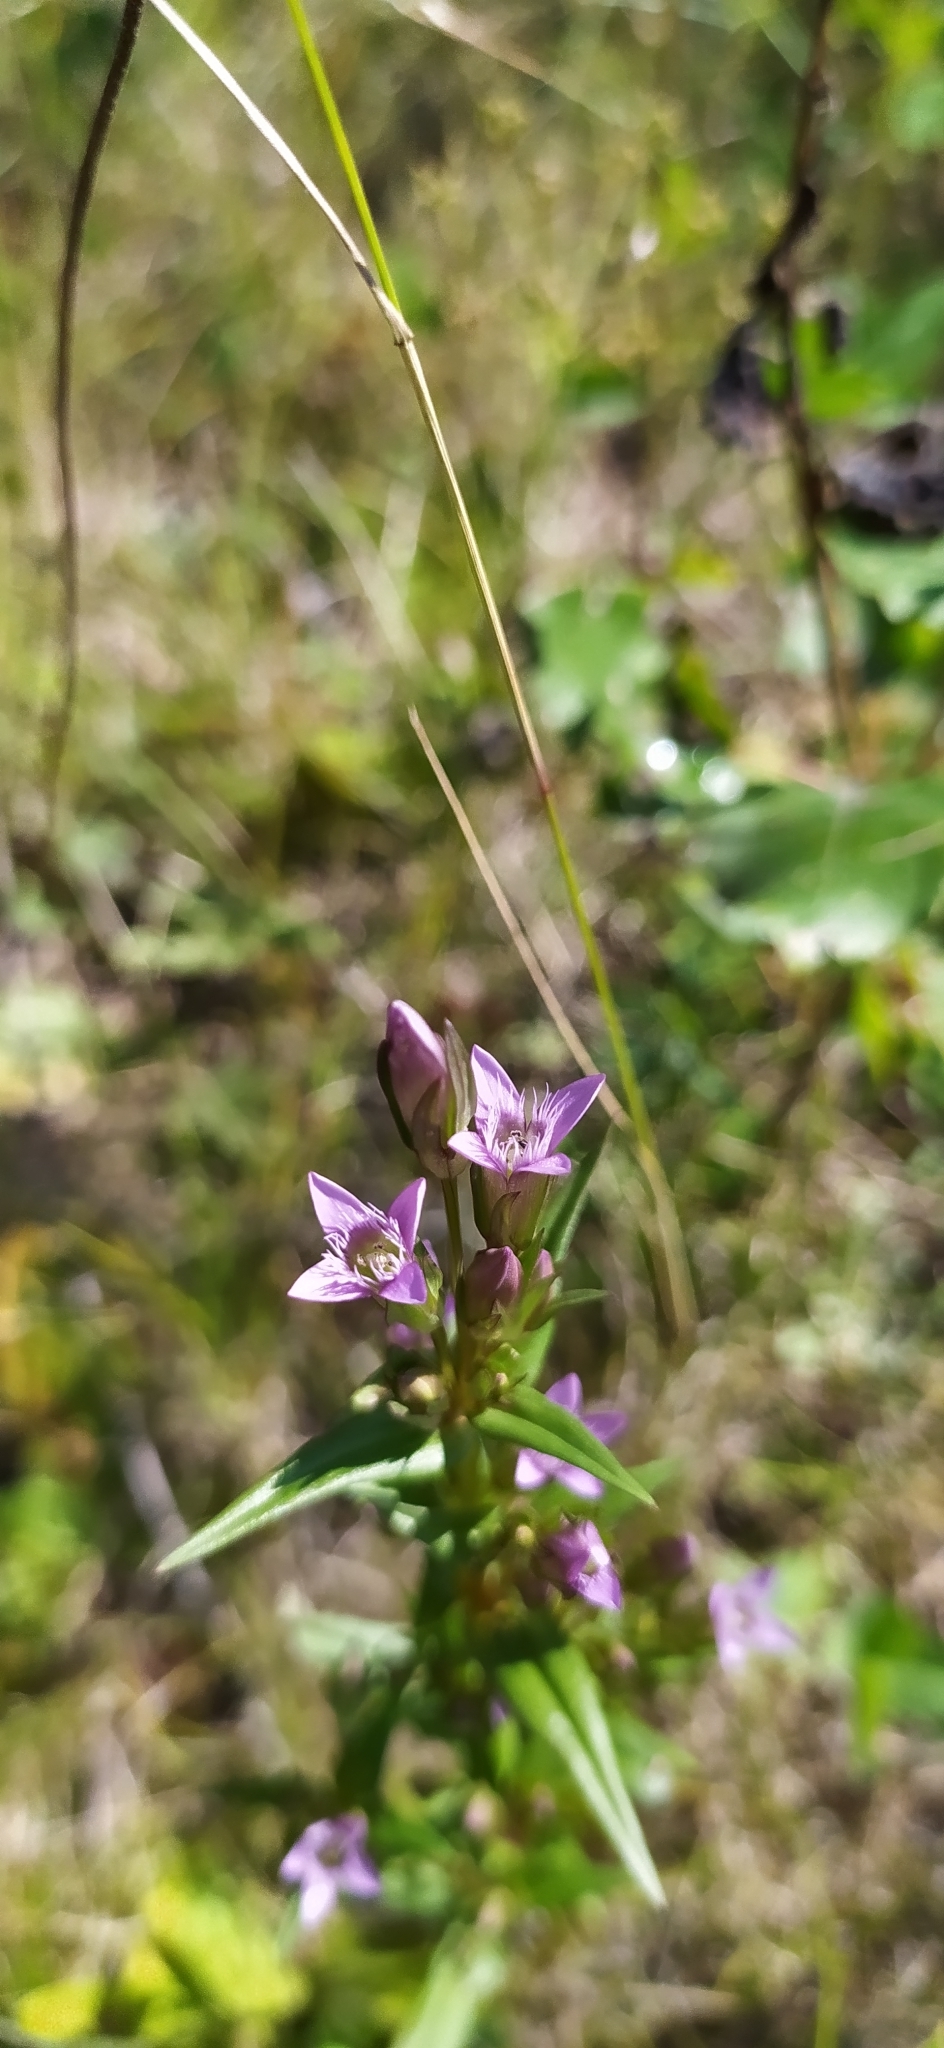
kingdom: Plantae
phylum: Tracheophyta
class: Magnoliopsida
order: Gentianales
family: Gentianaceae
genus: Gentianella
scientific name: Gentianella amarella
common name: Autumn gentian
